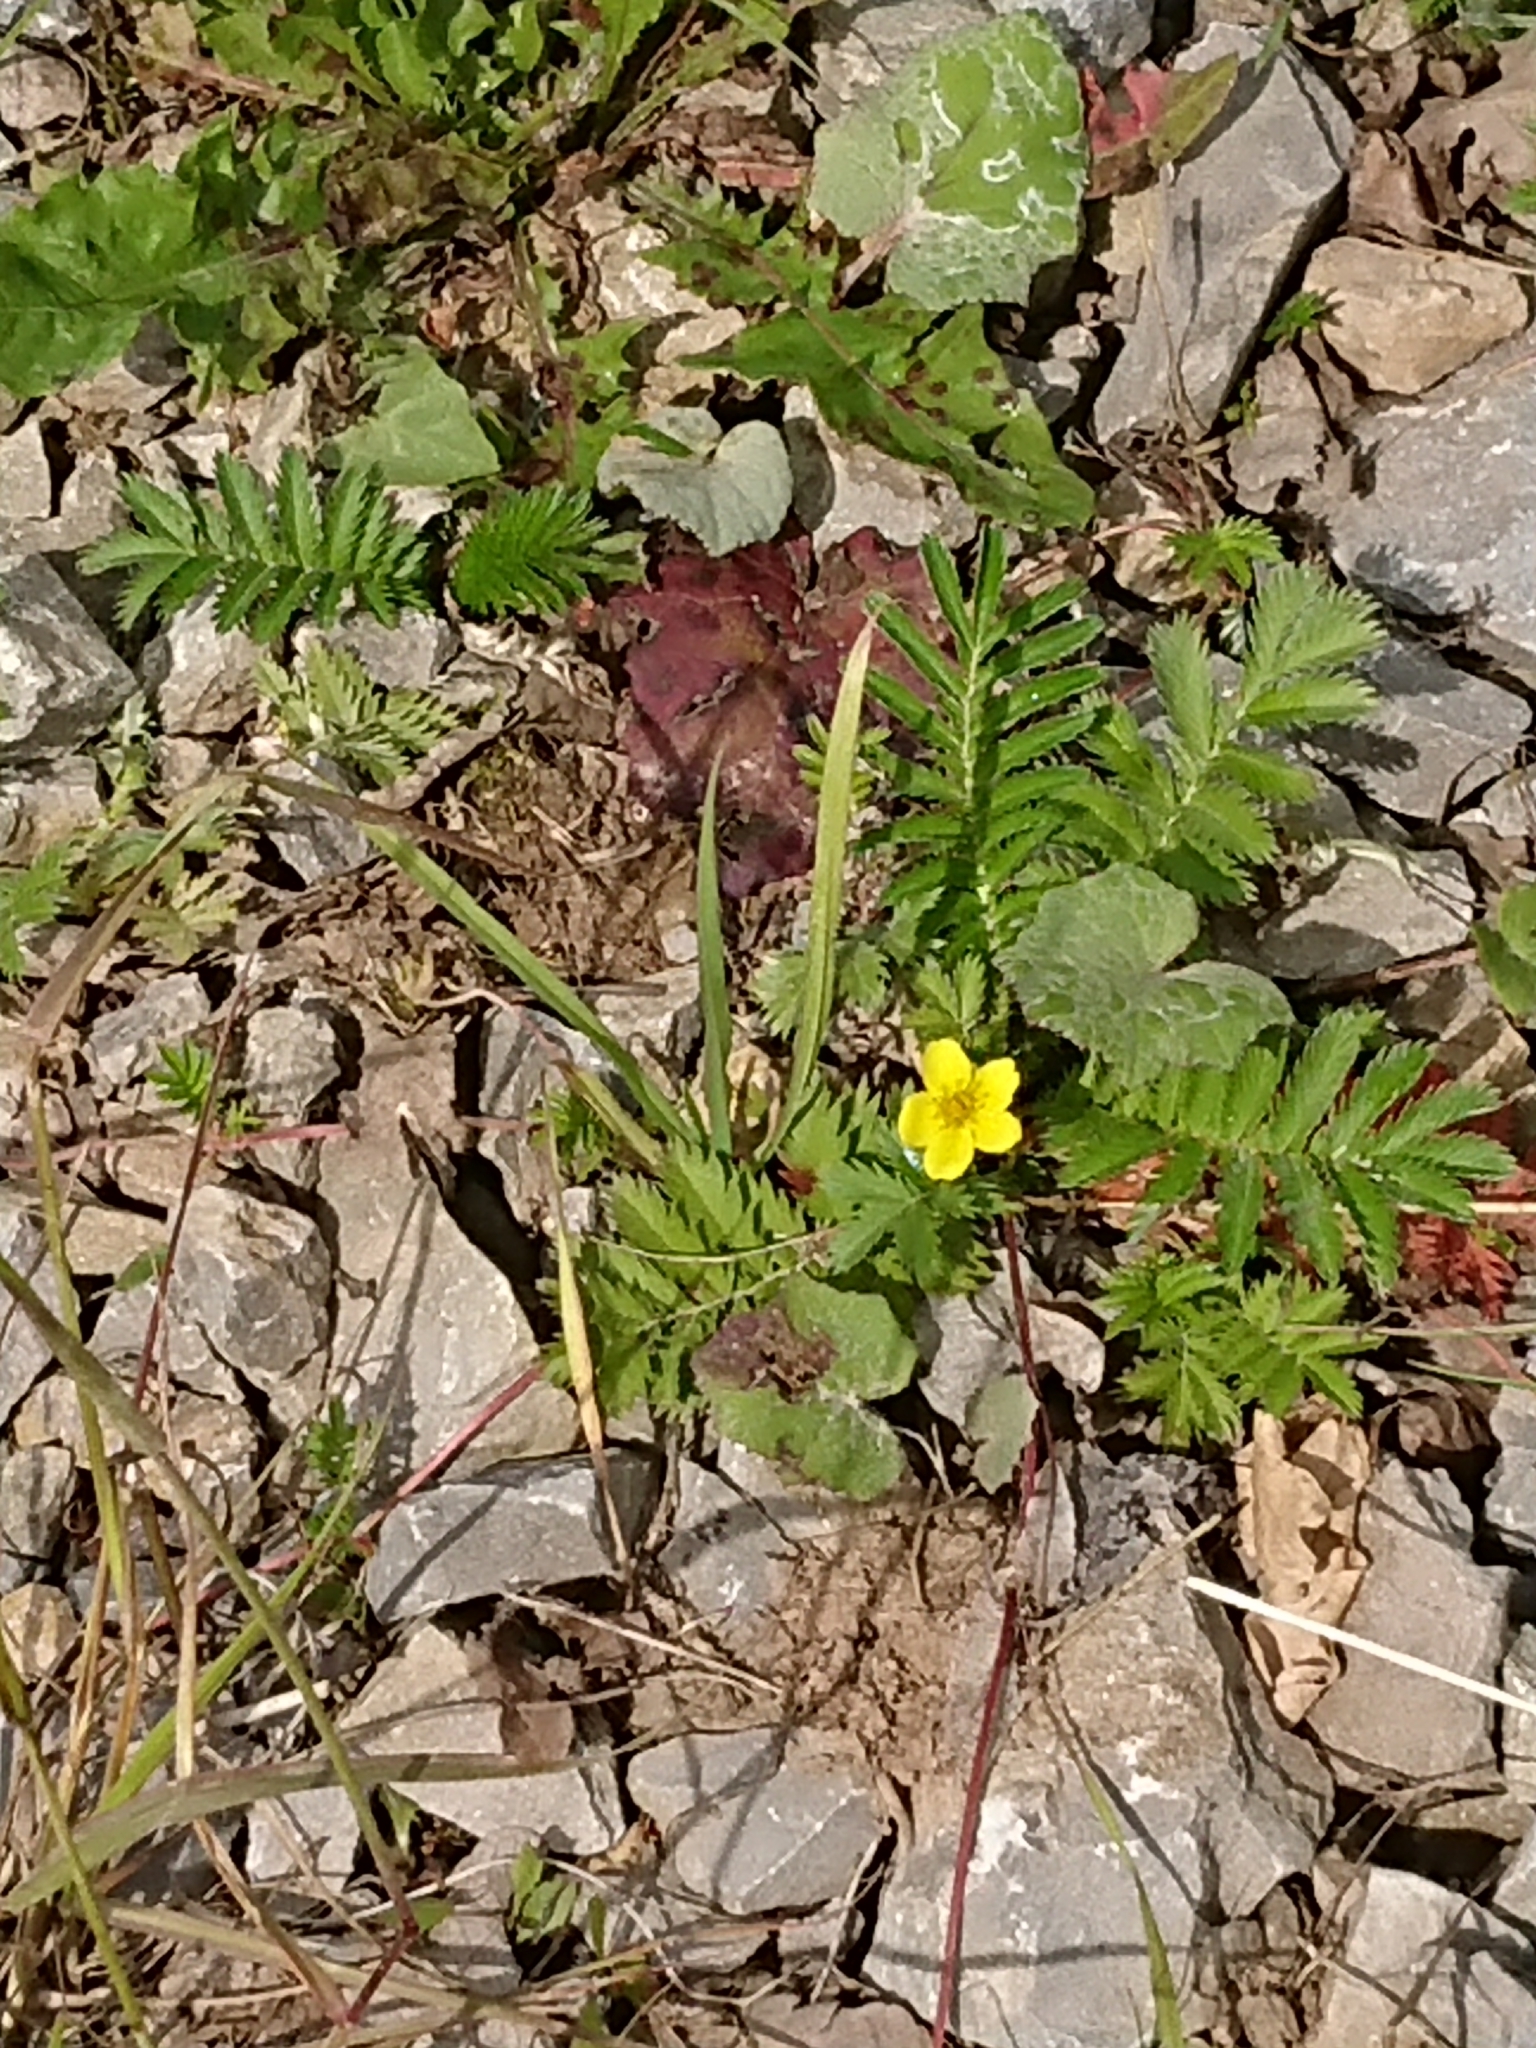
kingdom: Plantae
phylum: Tracheophyta
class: Magnoliopsida
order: Rosales
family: Rosaceae
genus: Argentina
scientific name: Argentina anserina
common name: Common silverweed
